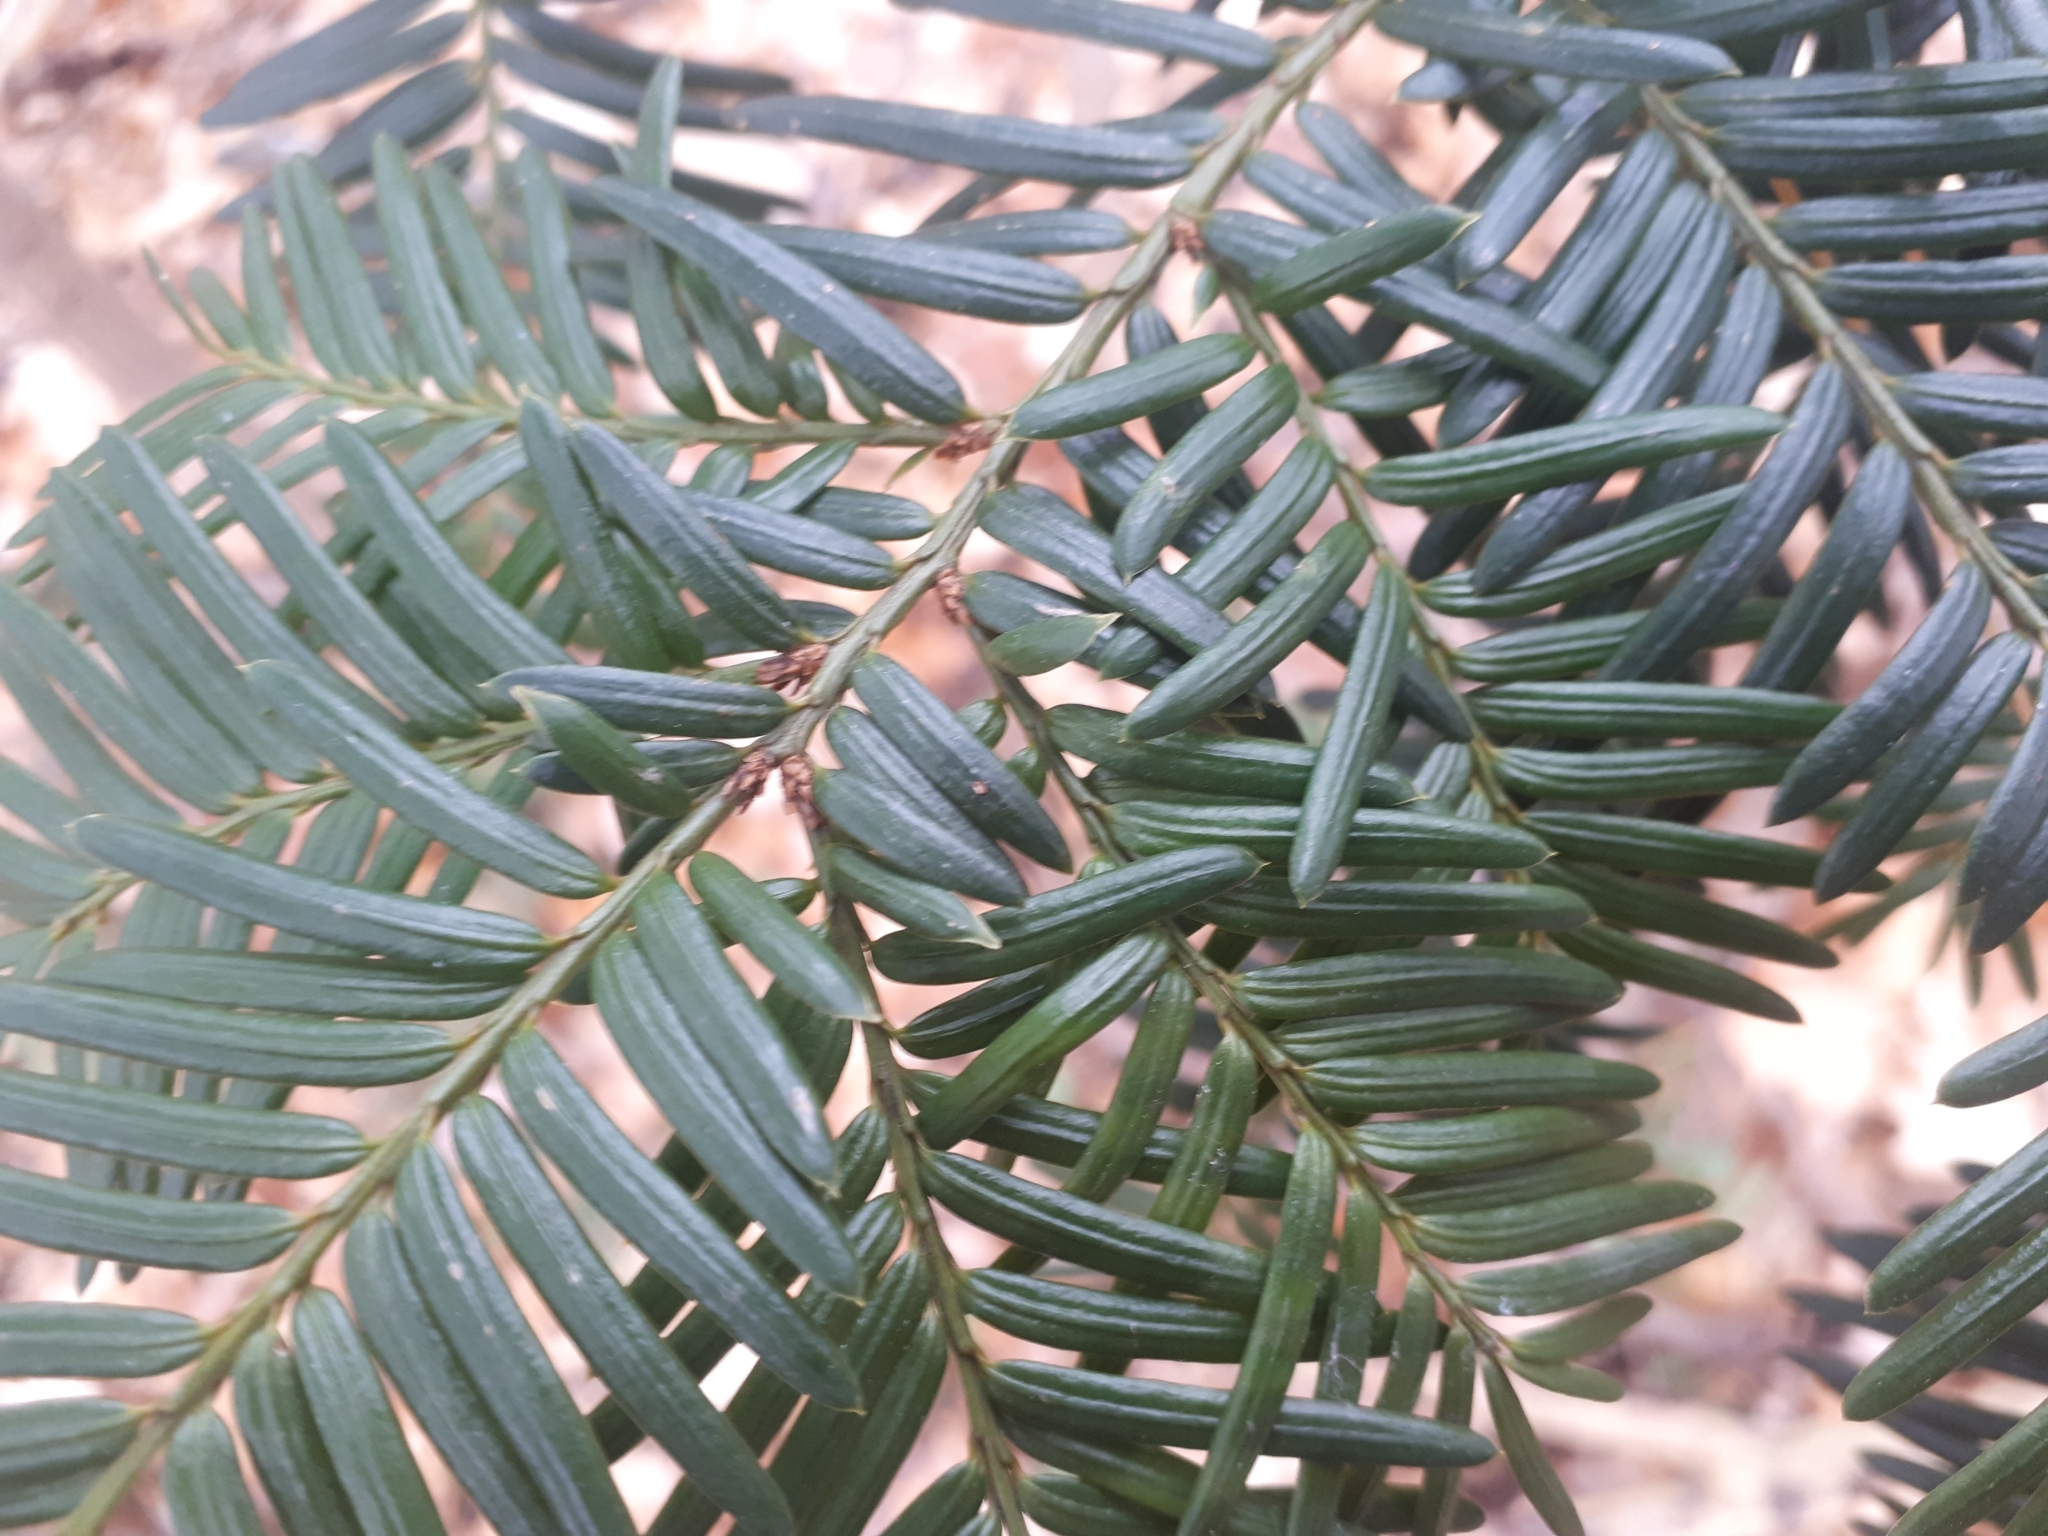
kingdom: Plantae
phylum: Tracheophyta
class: Pinopsida
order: Pinales
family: Taxaceae
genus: Taxus
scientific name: Taxus cuspidata
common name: Japanese yew
